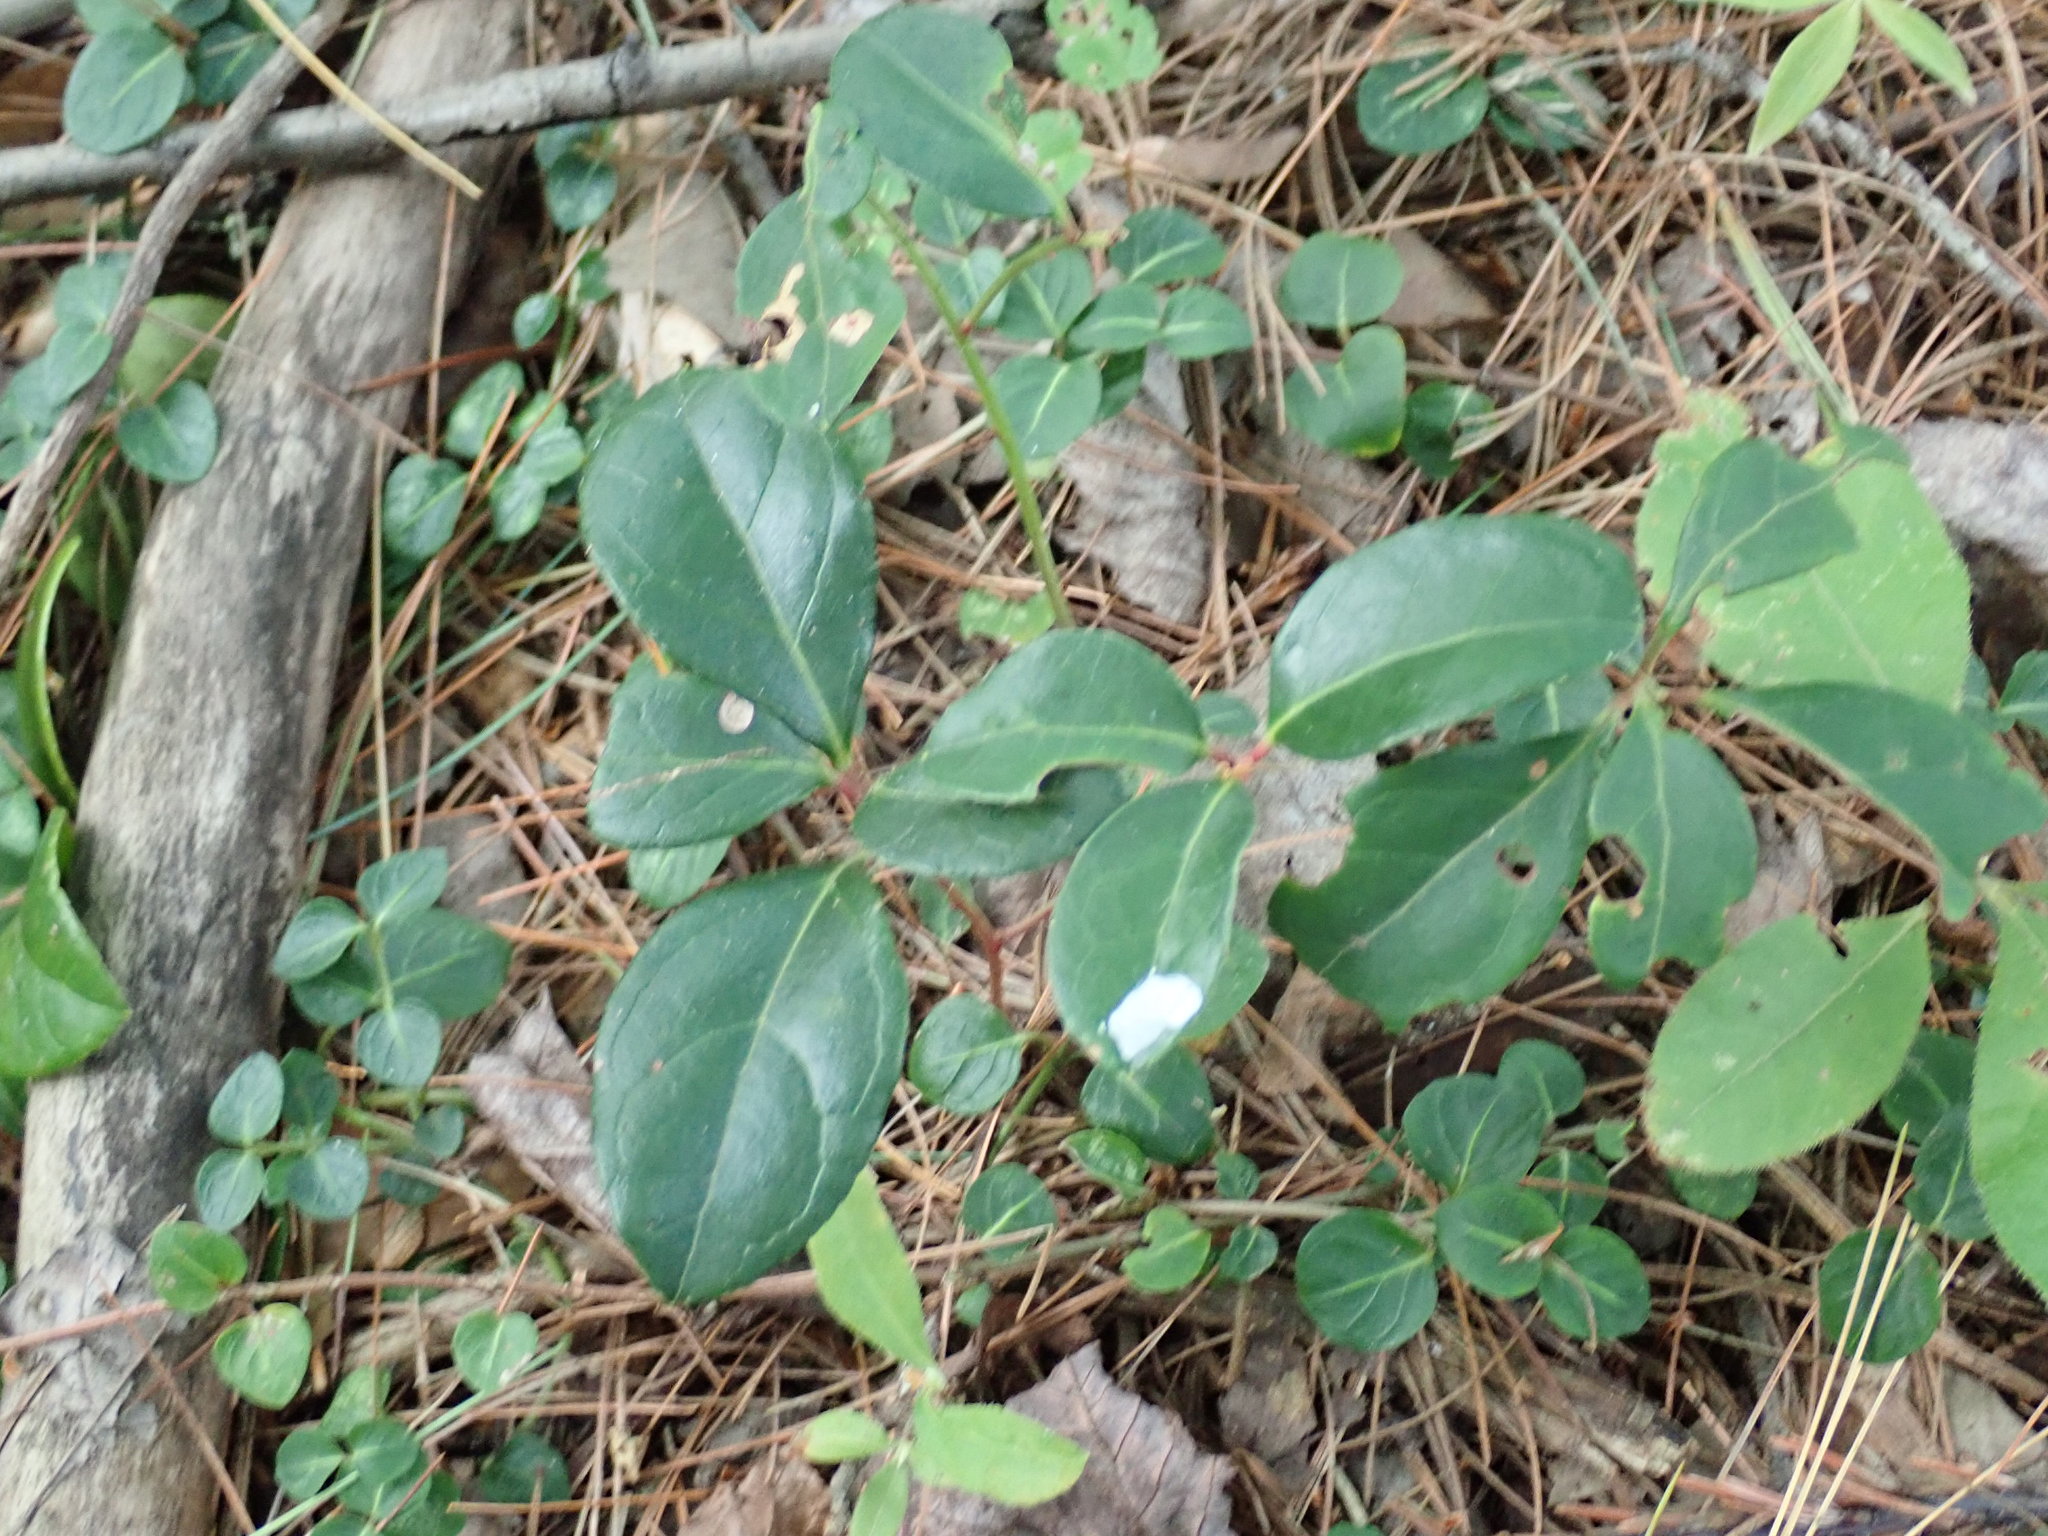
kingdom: Plantae
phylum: Tracheophyta
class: Magnoliopsida
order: Ericales
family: Ericaceae
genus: Gaultheria
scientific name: Gaultheria procumbens
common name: Checkerberry
